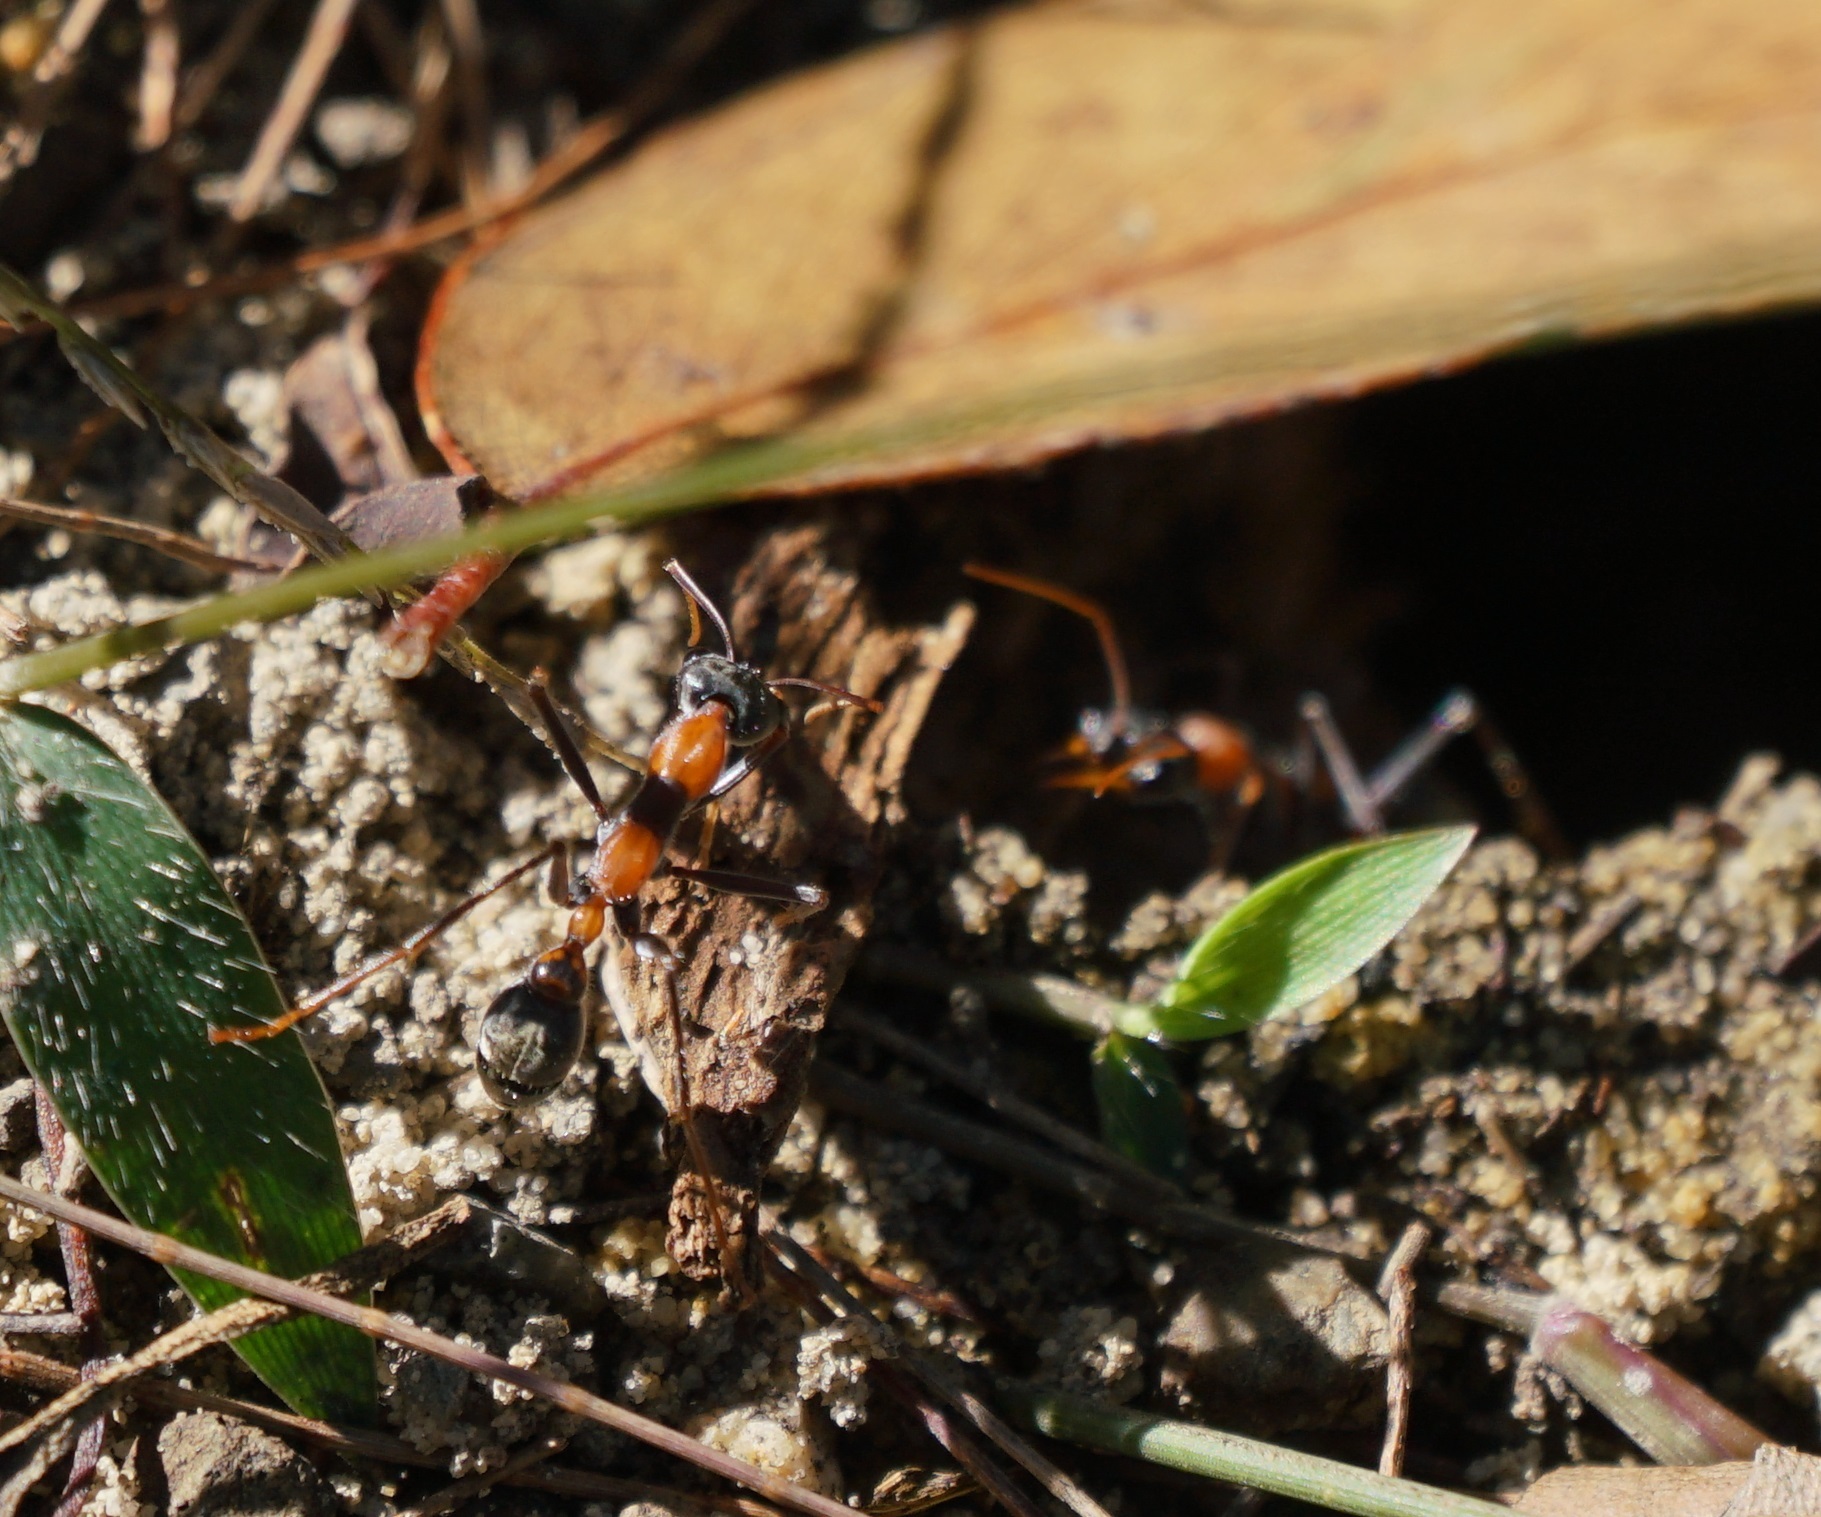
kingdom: Animalia
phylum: Arthropoda
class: Insecta
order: Hymenoptera
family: Formicidae
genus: Myrmecia
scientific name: Myrmecia nigrocincta
